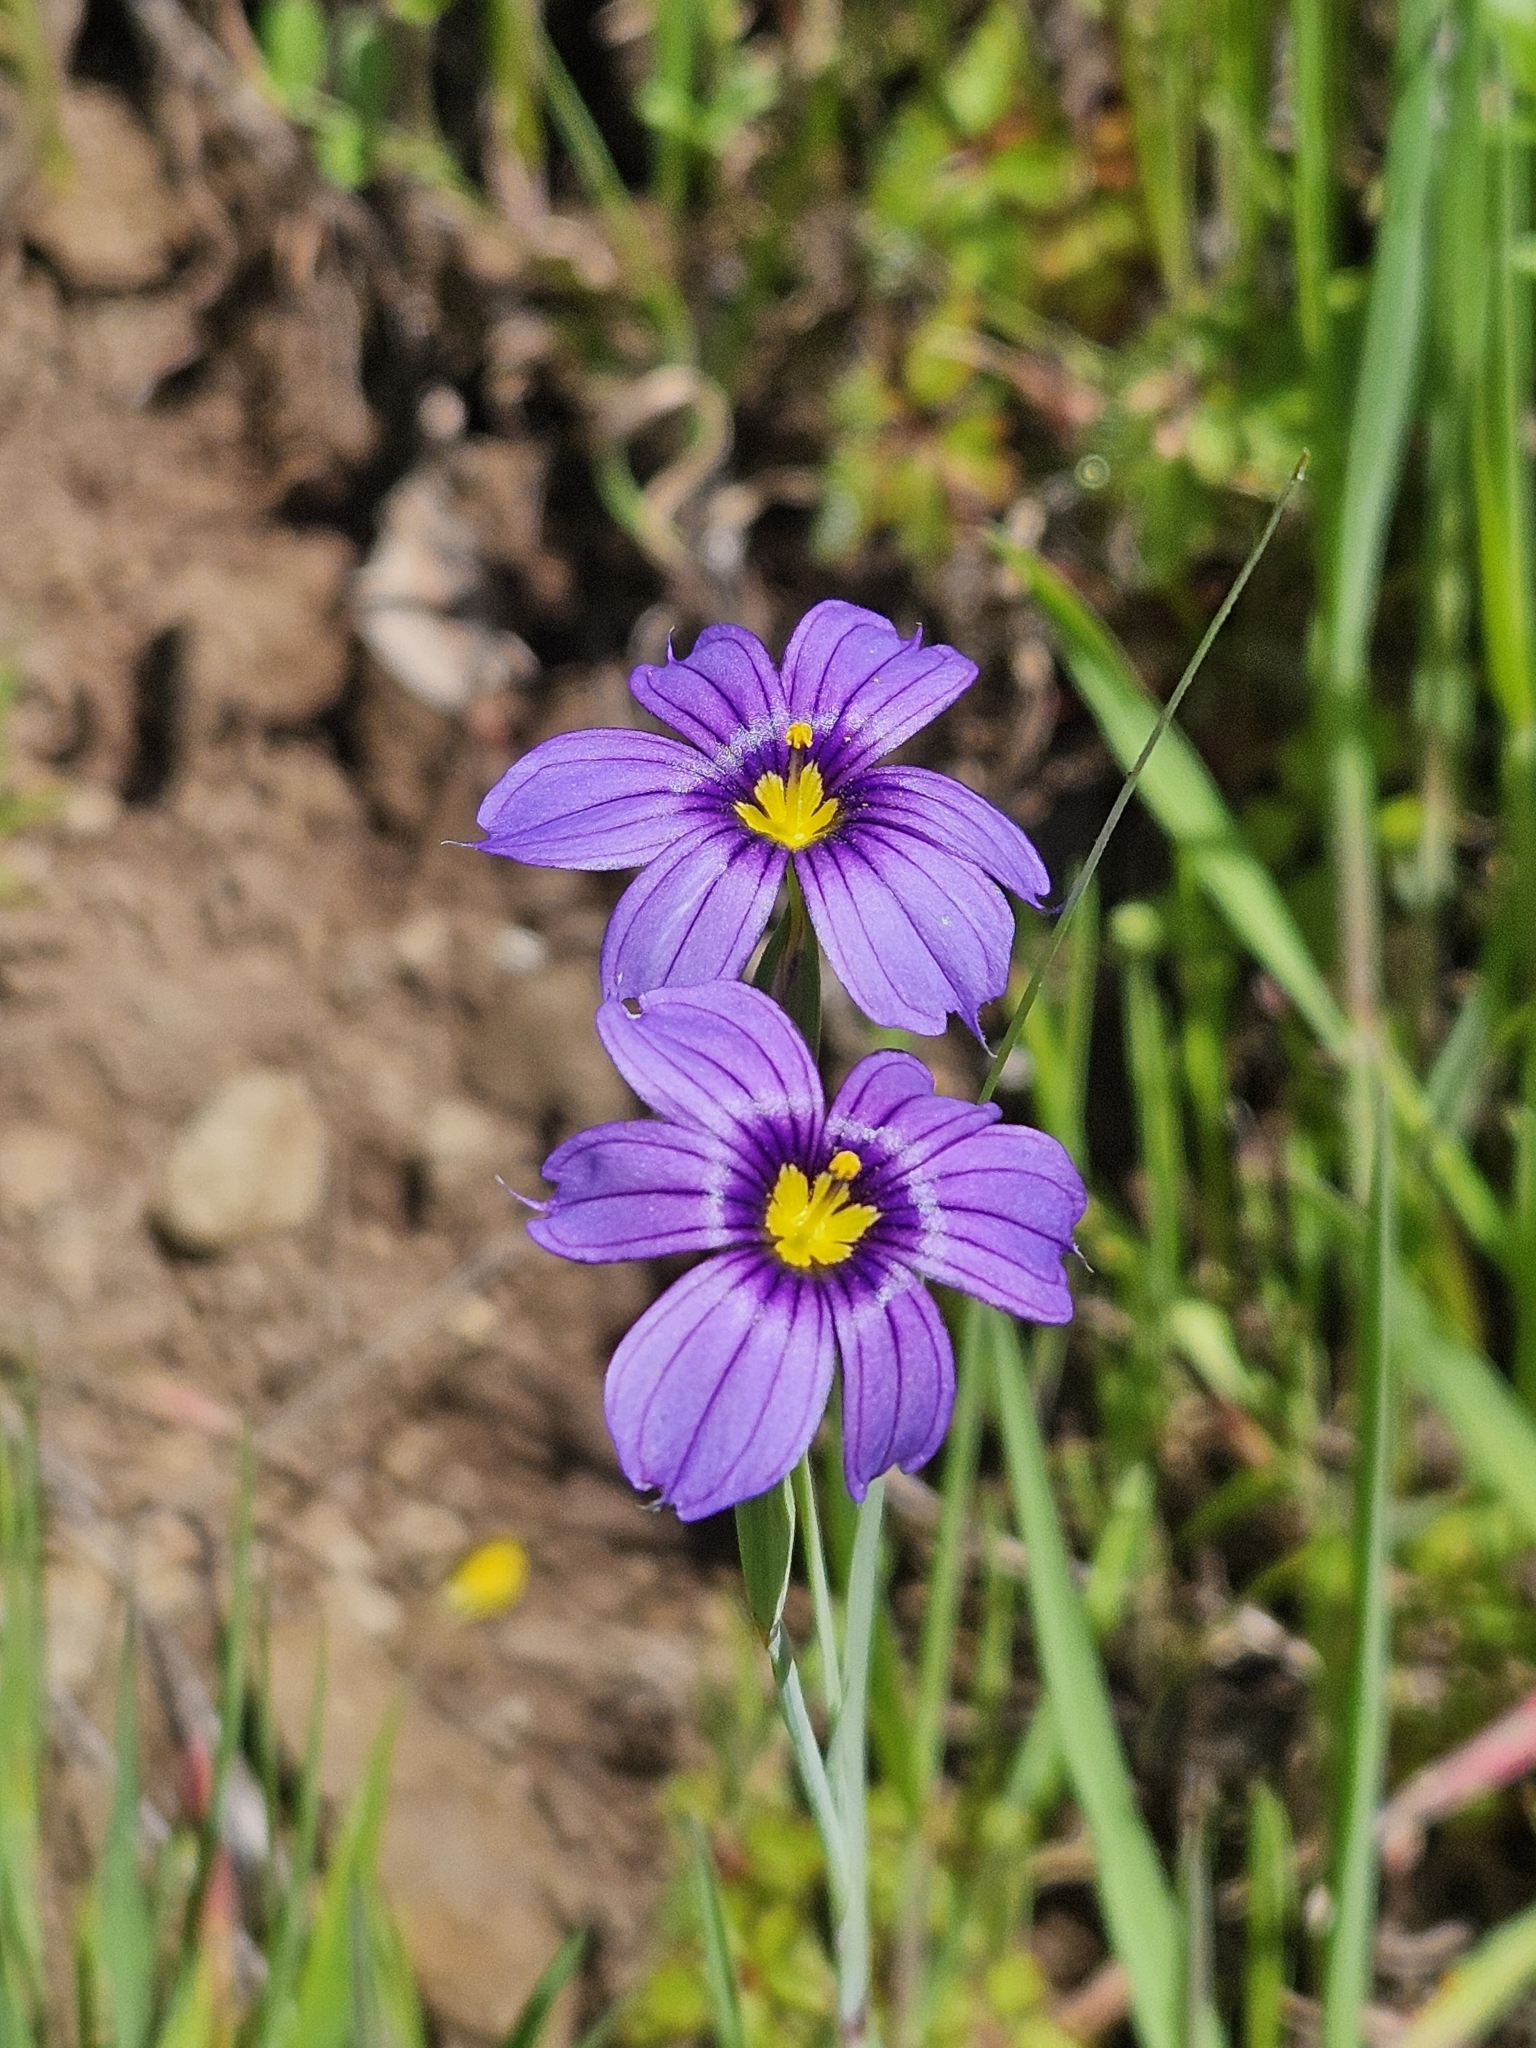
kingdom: Plantae
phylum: Tracheophyta
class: Liliopsida
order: Asparagales
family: Iridaceae
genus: Sisyrinchium
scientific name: Sisyrinchium bellum
